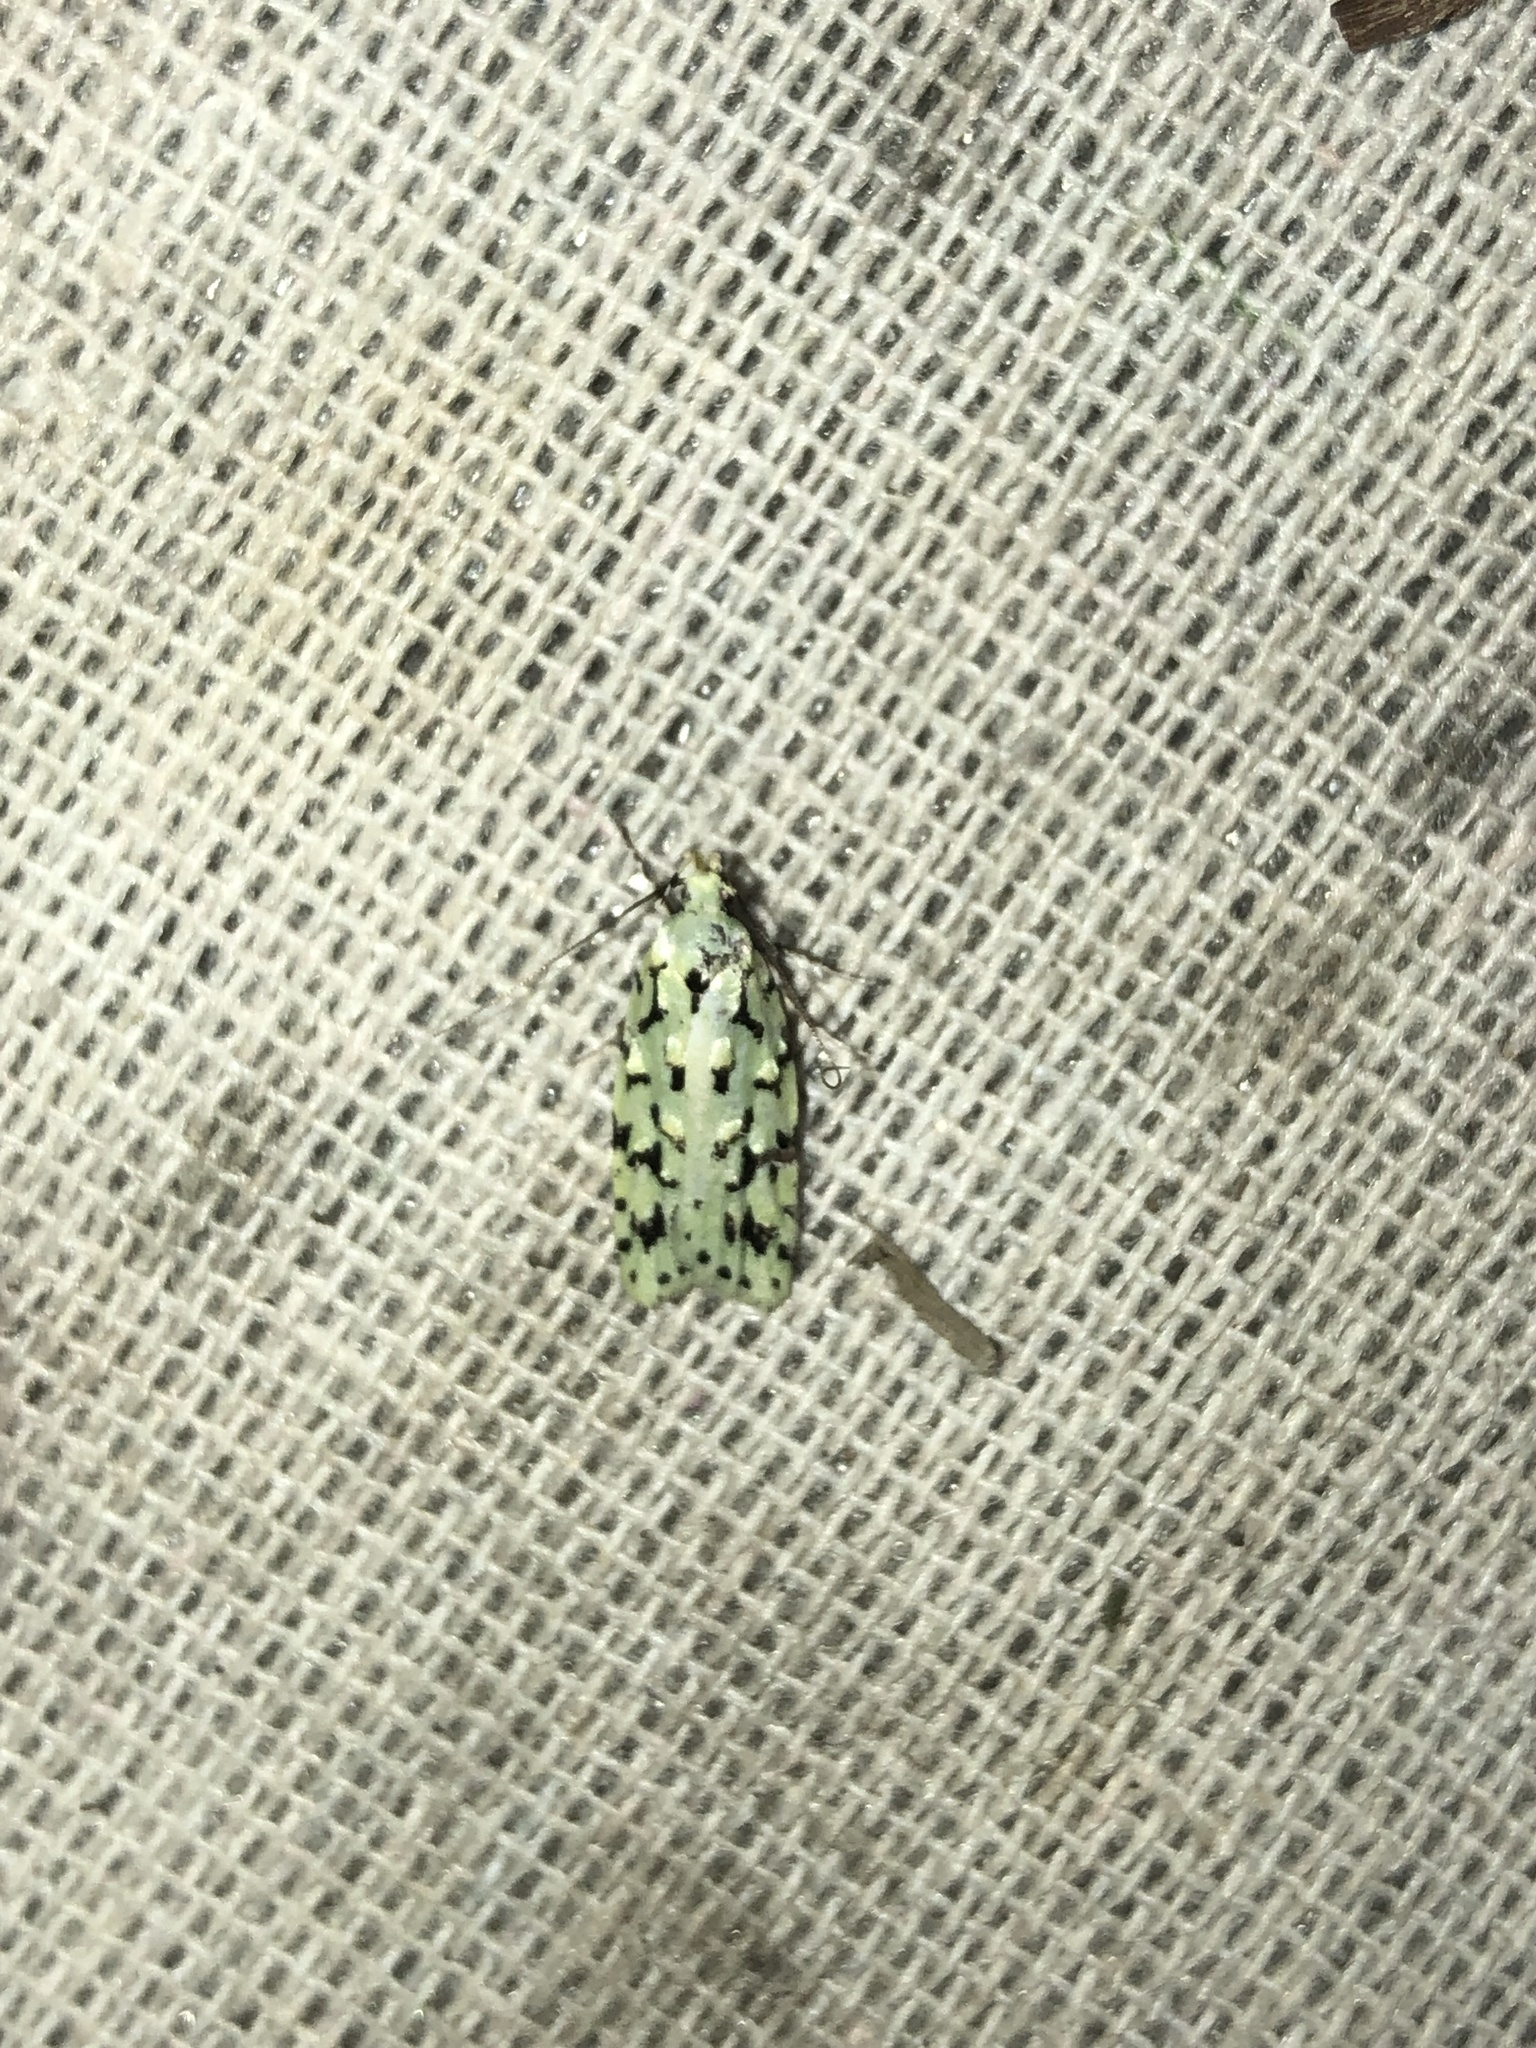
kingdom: Animalia
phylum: Arthropoda
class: Insecta
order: Lepidoptera
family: Oecophoridae
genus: Izatha
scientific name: Izatha peroneanella
